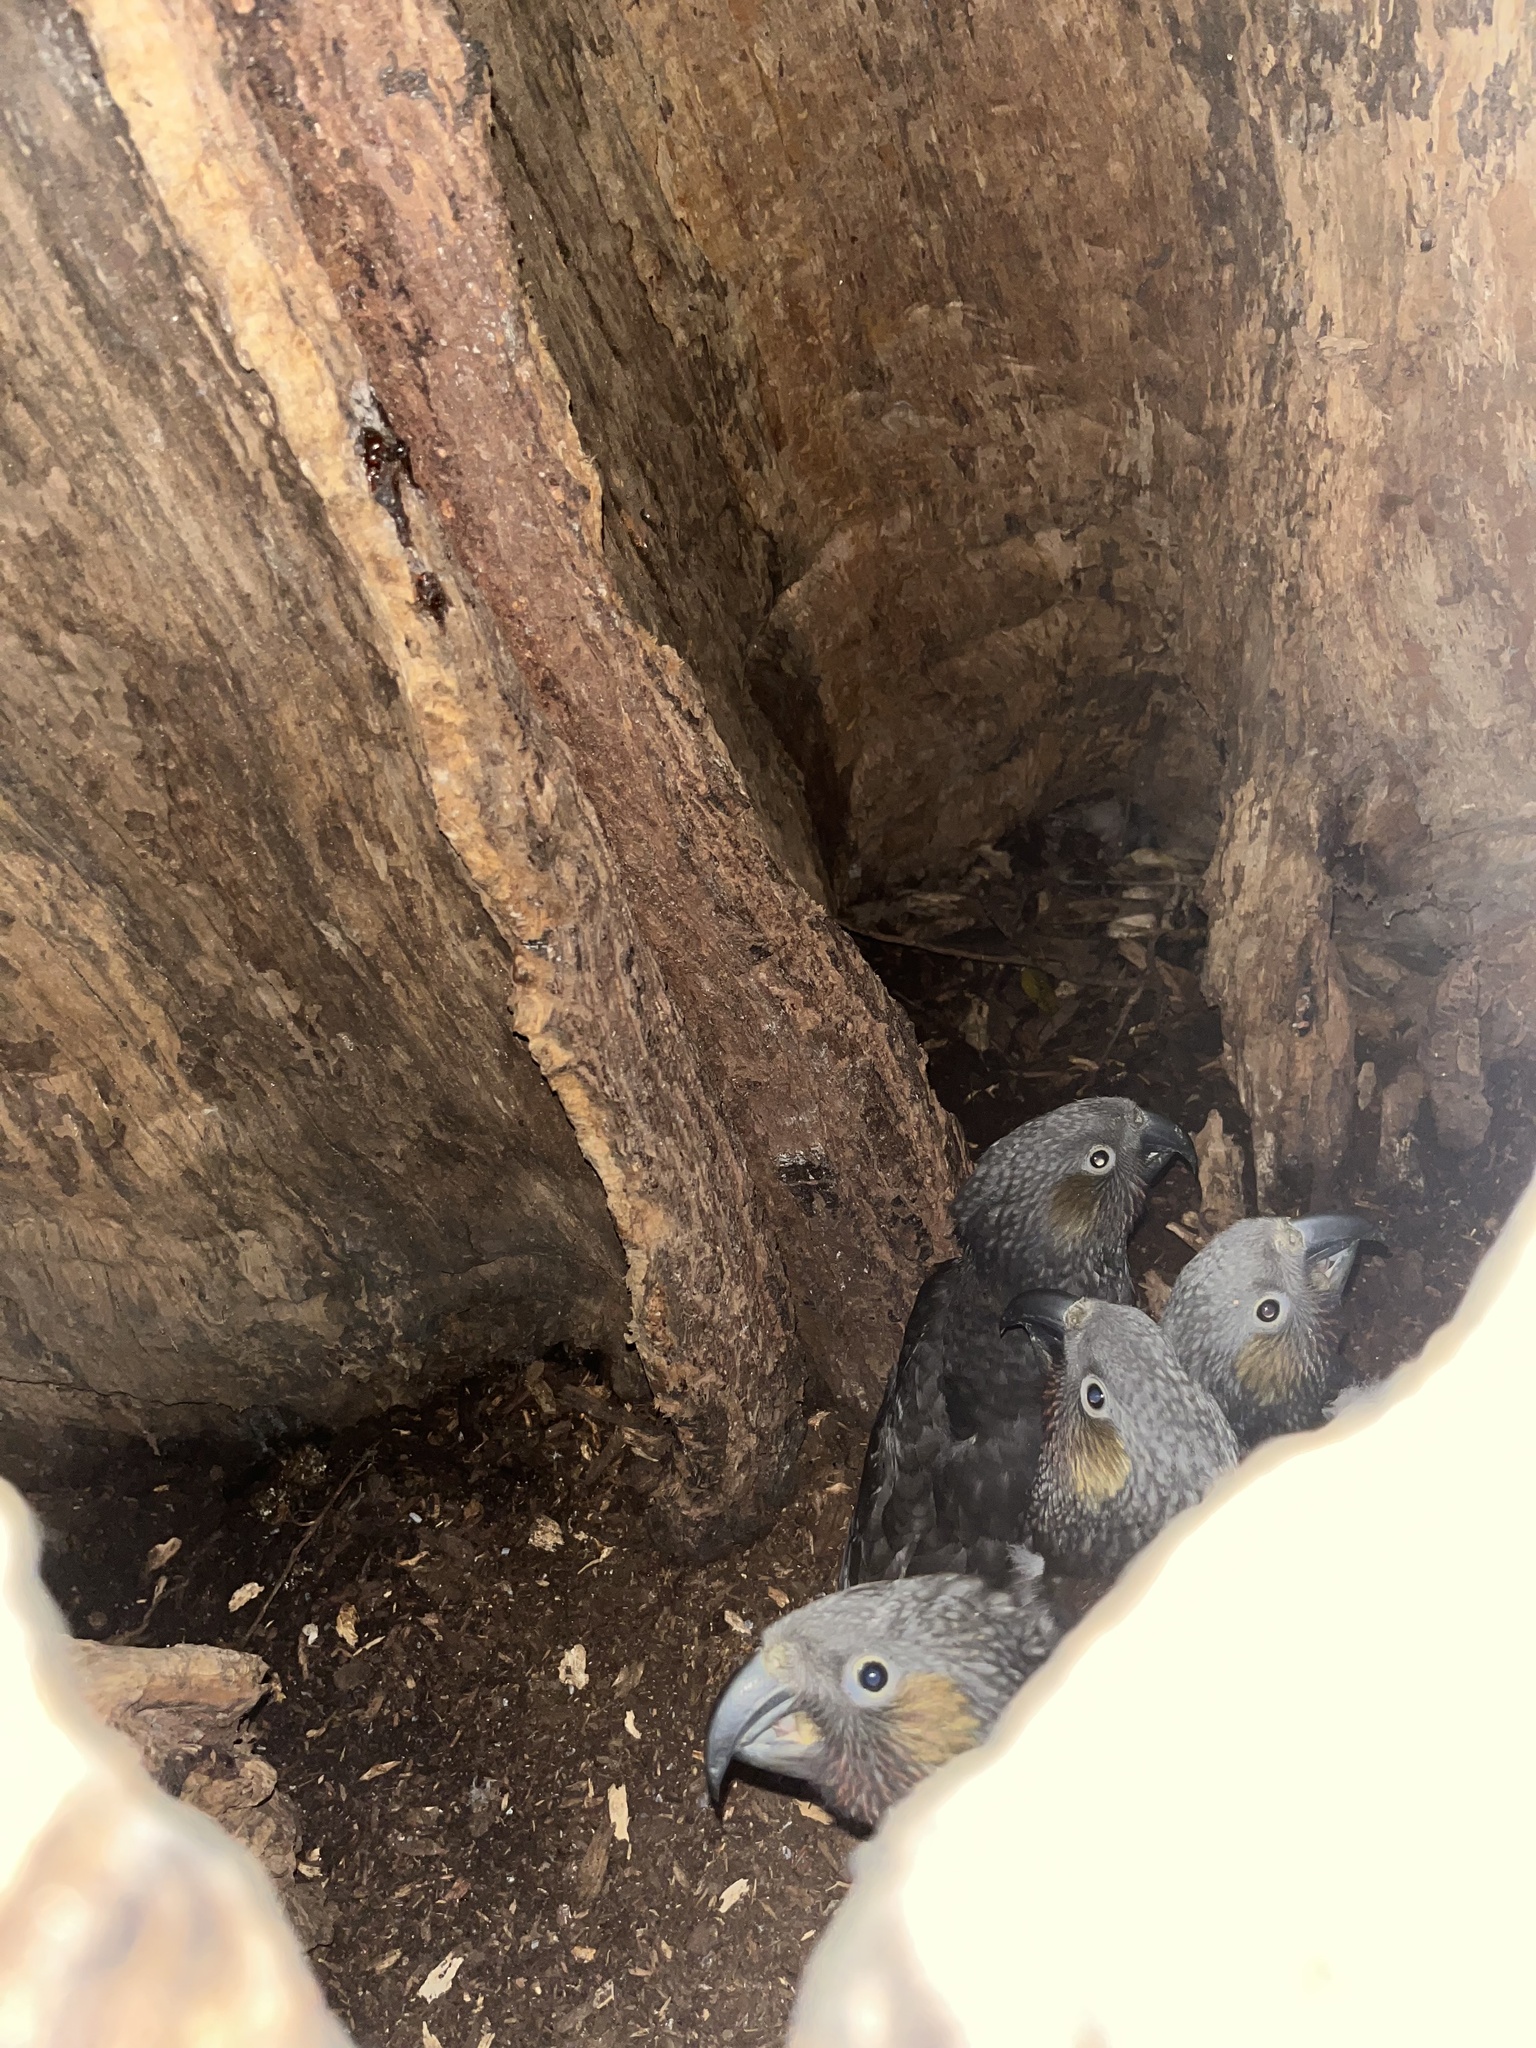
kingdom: Animalia
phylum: Chordata
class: Aves
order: Psittaciformes
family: Psittacidae
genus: Nestor
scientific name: Nestor meridionalis
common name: New zealand kaka
